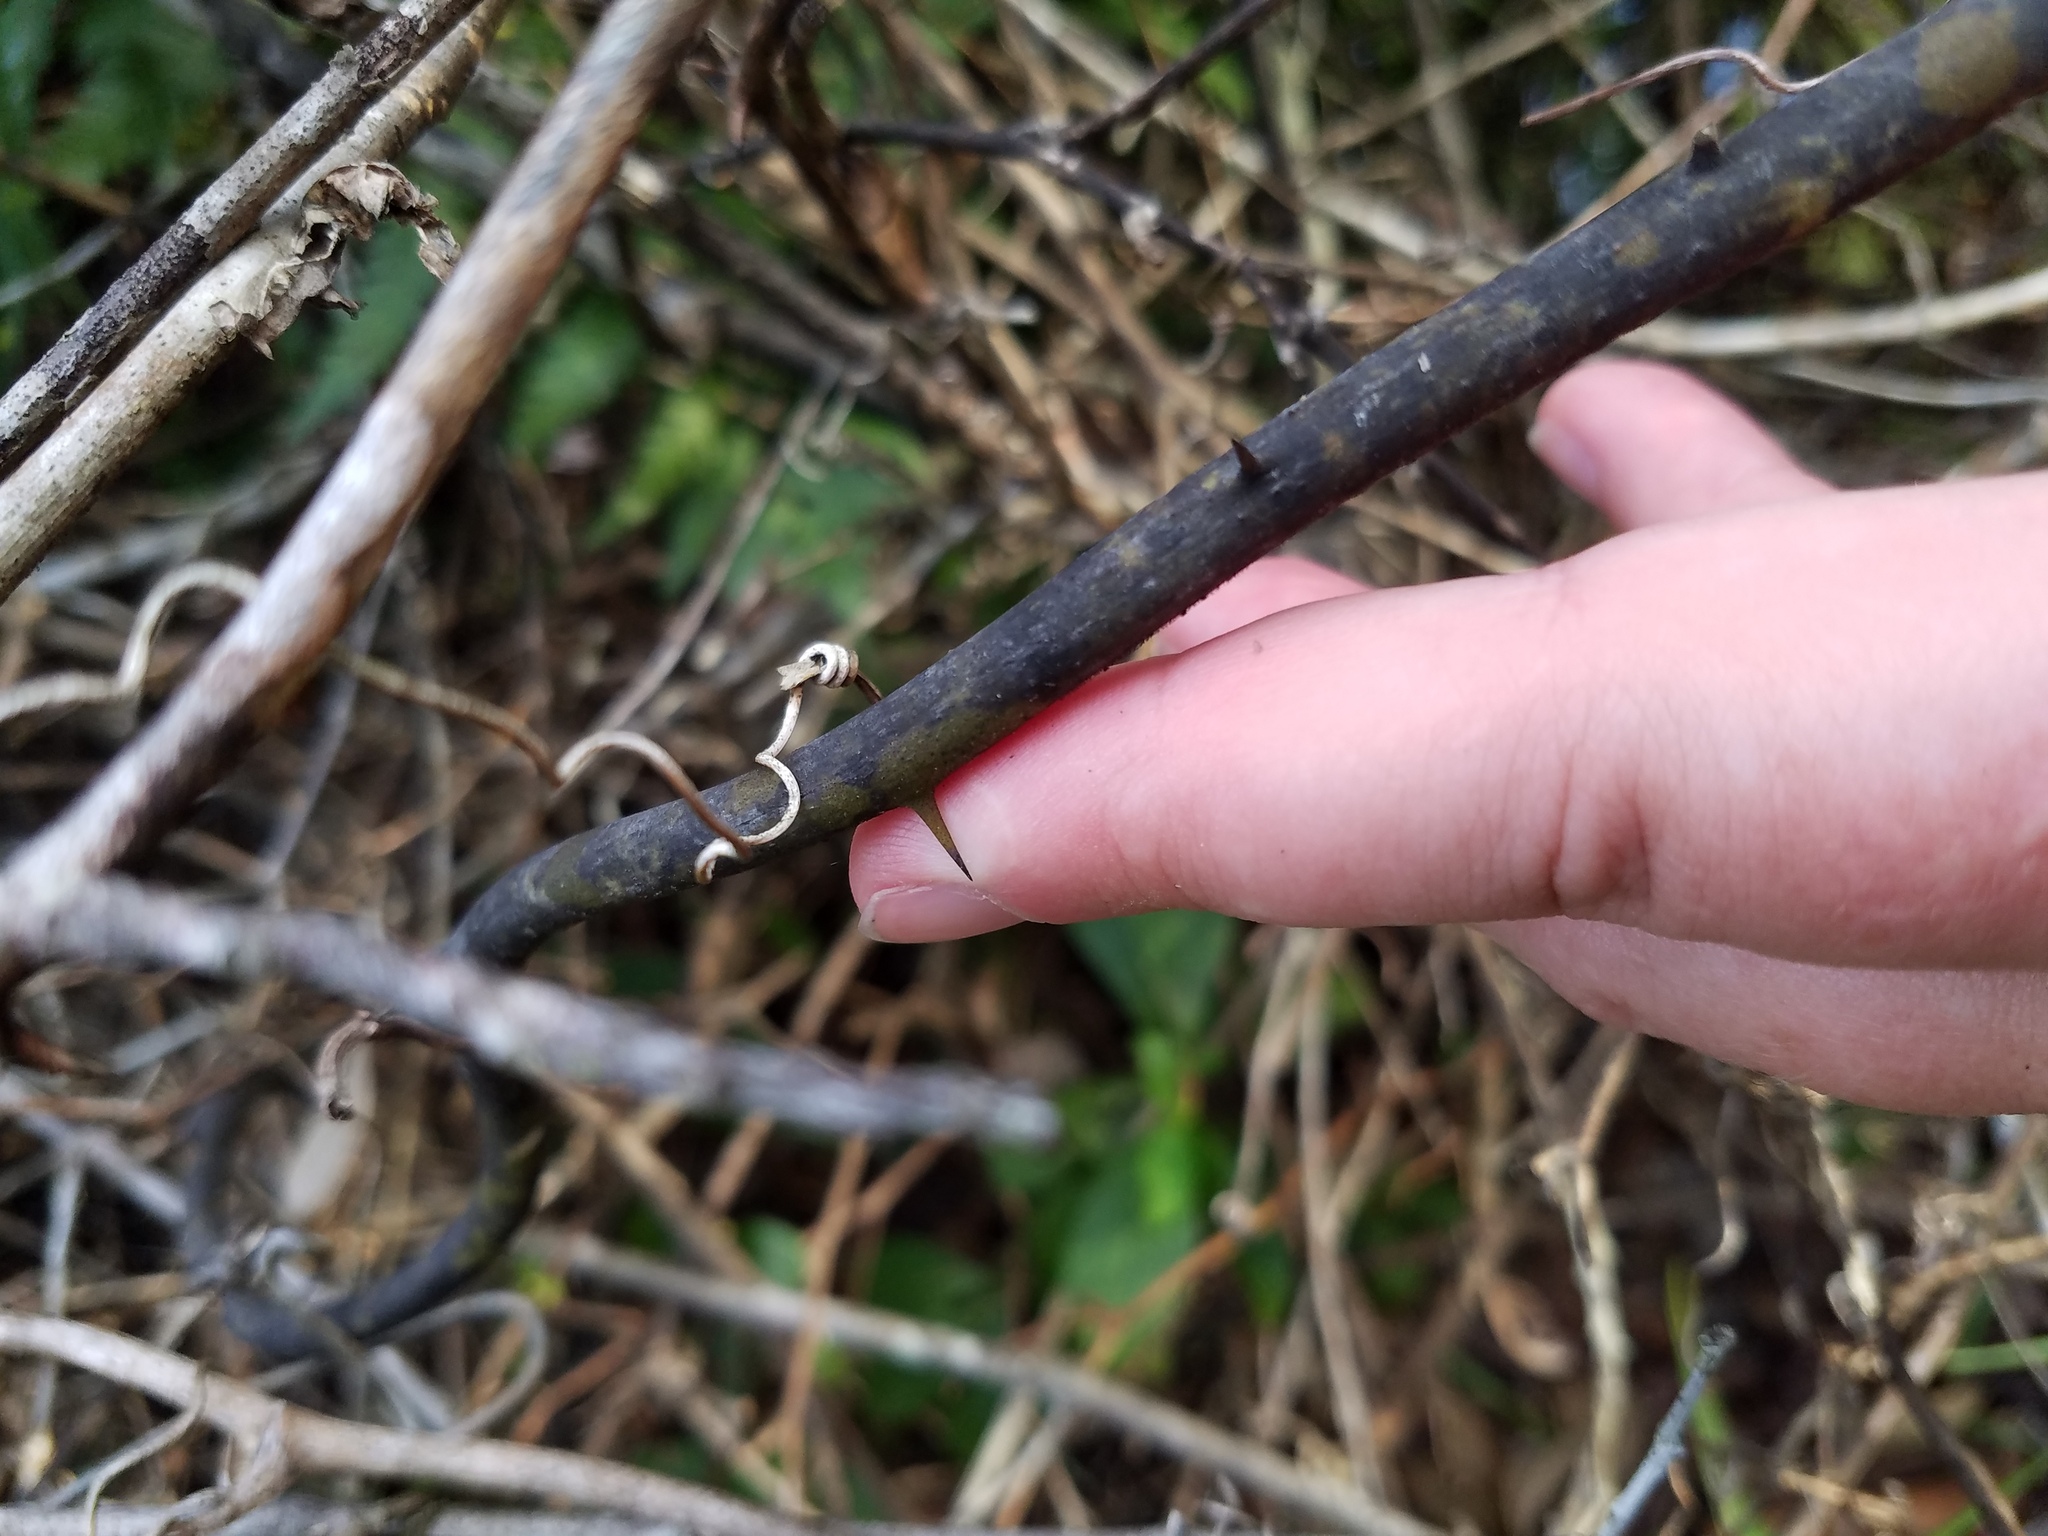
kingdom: Plantae
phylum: Tracheophyta
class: Liliopsida
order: Liliales
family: Smilacaceae
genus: Smilax
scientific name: Smilax laurifolia
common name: Bamboovine
